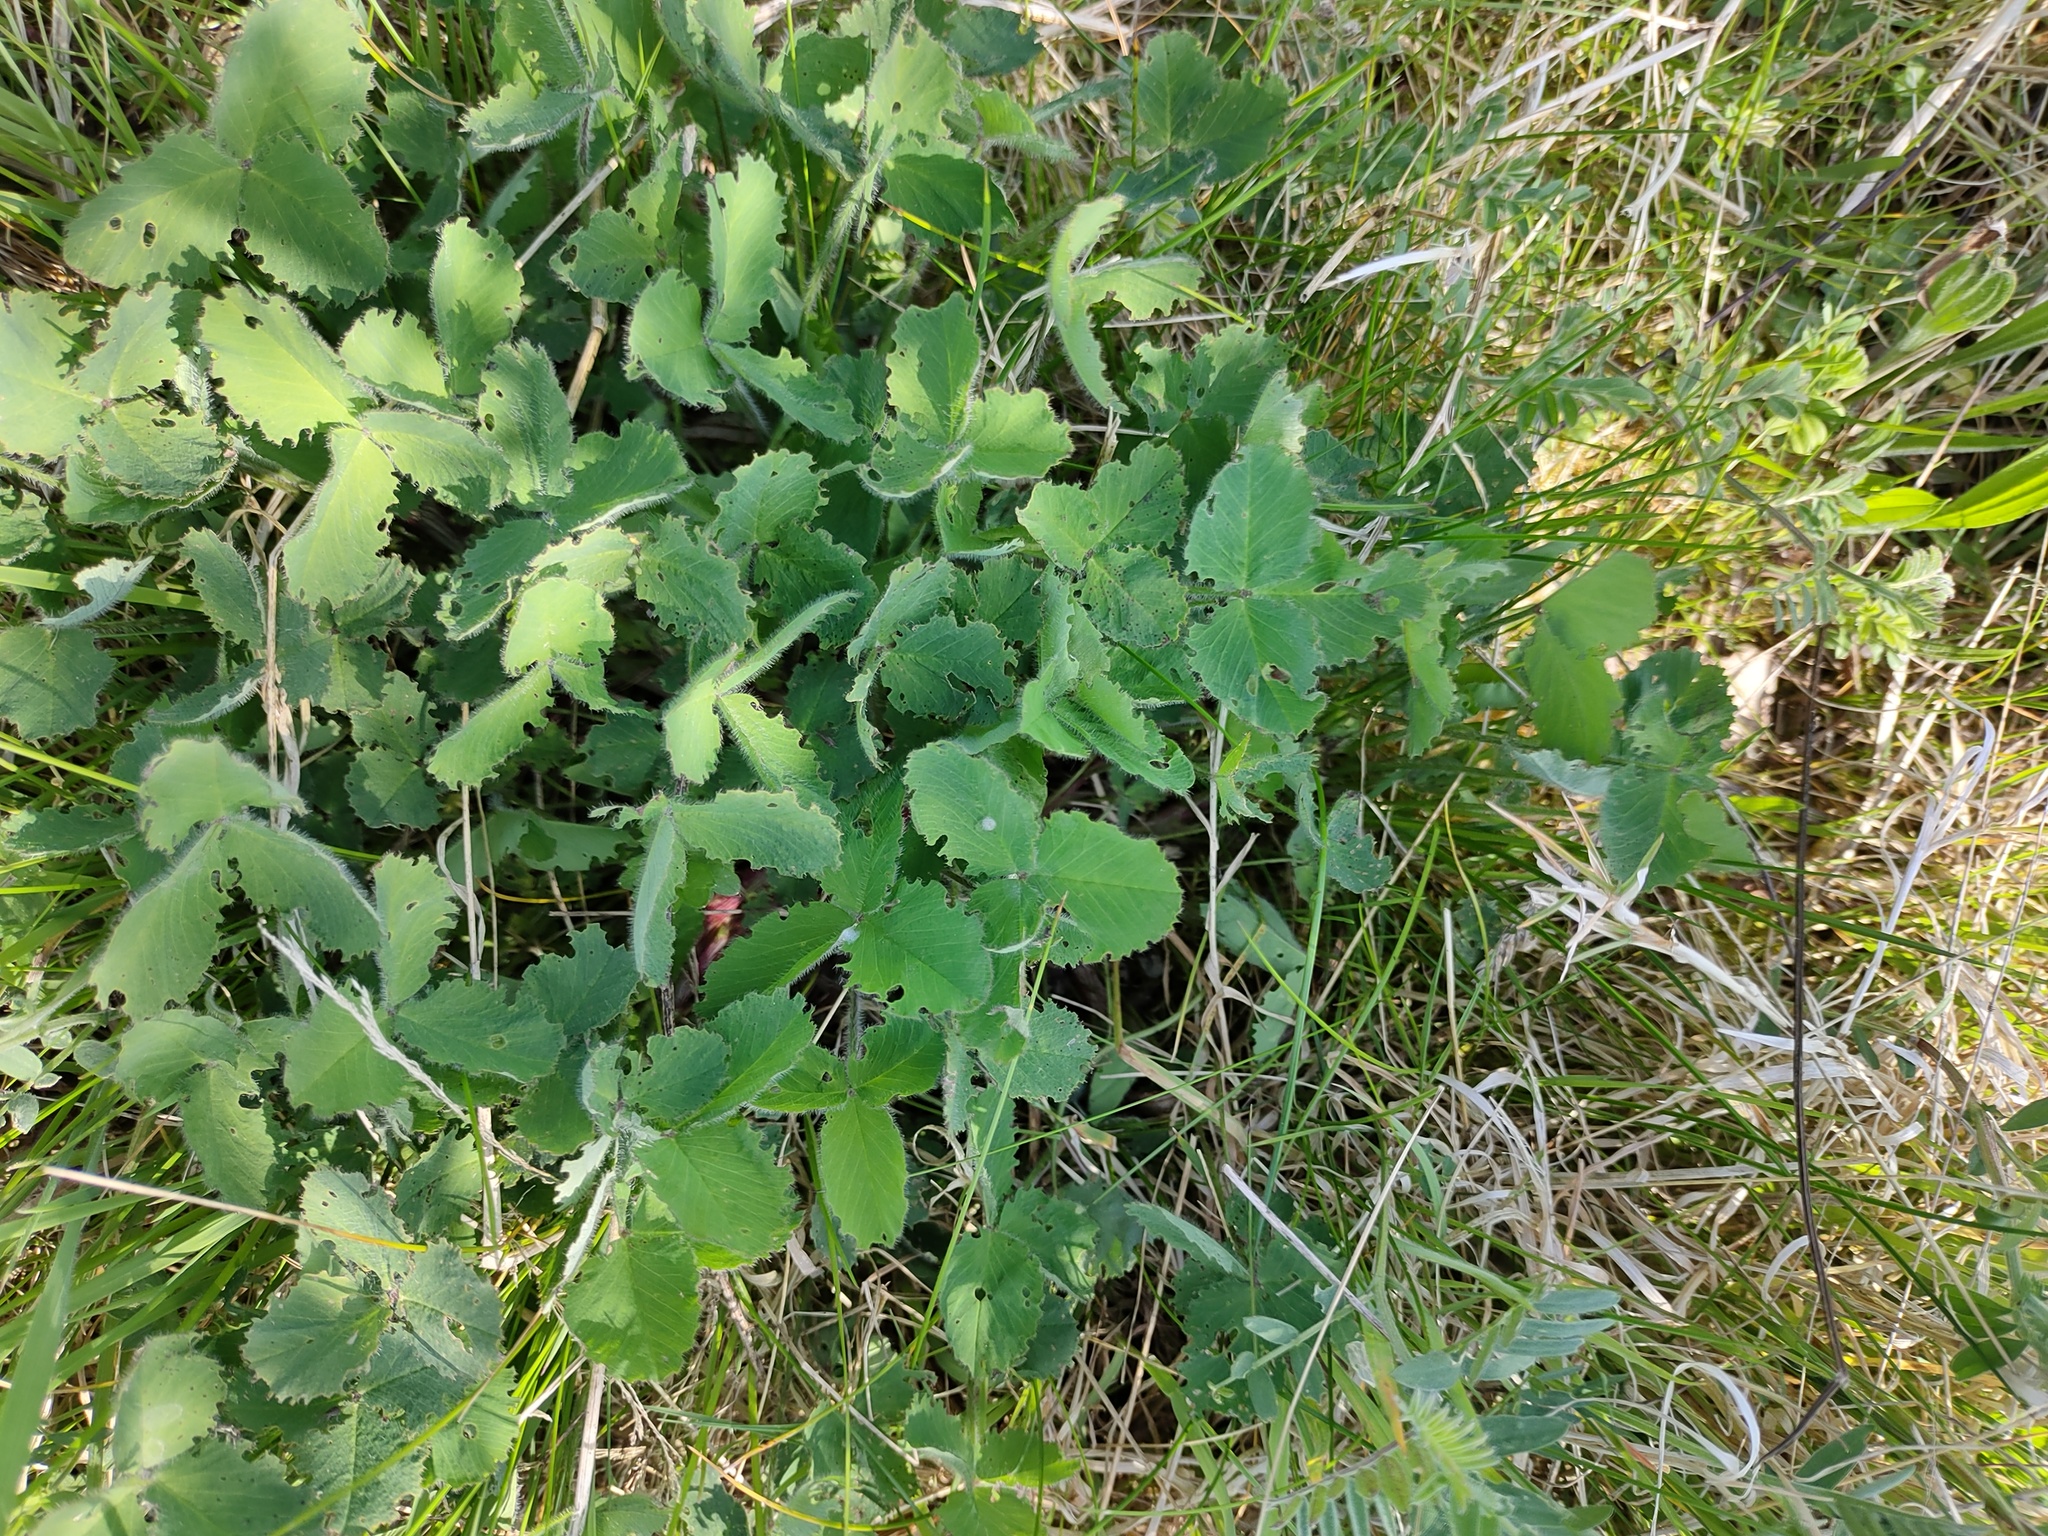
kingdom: Plantae
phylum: Tracheophyta
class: Magnoliopsida
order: Fabales
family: Fabaceae
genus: Trifolium
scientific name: Trifolium pratense
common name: Red clover
